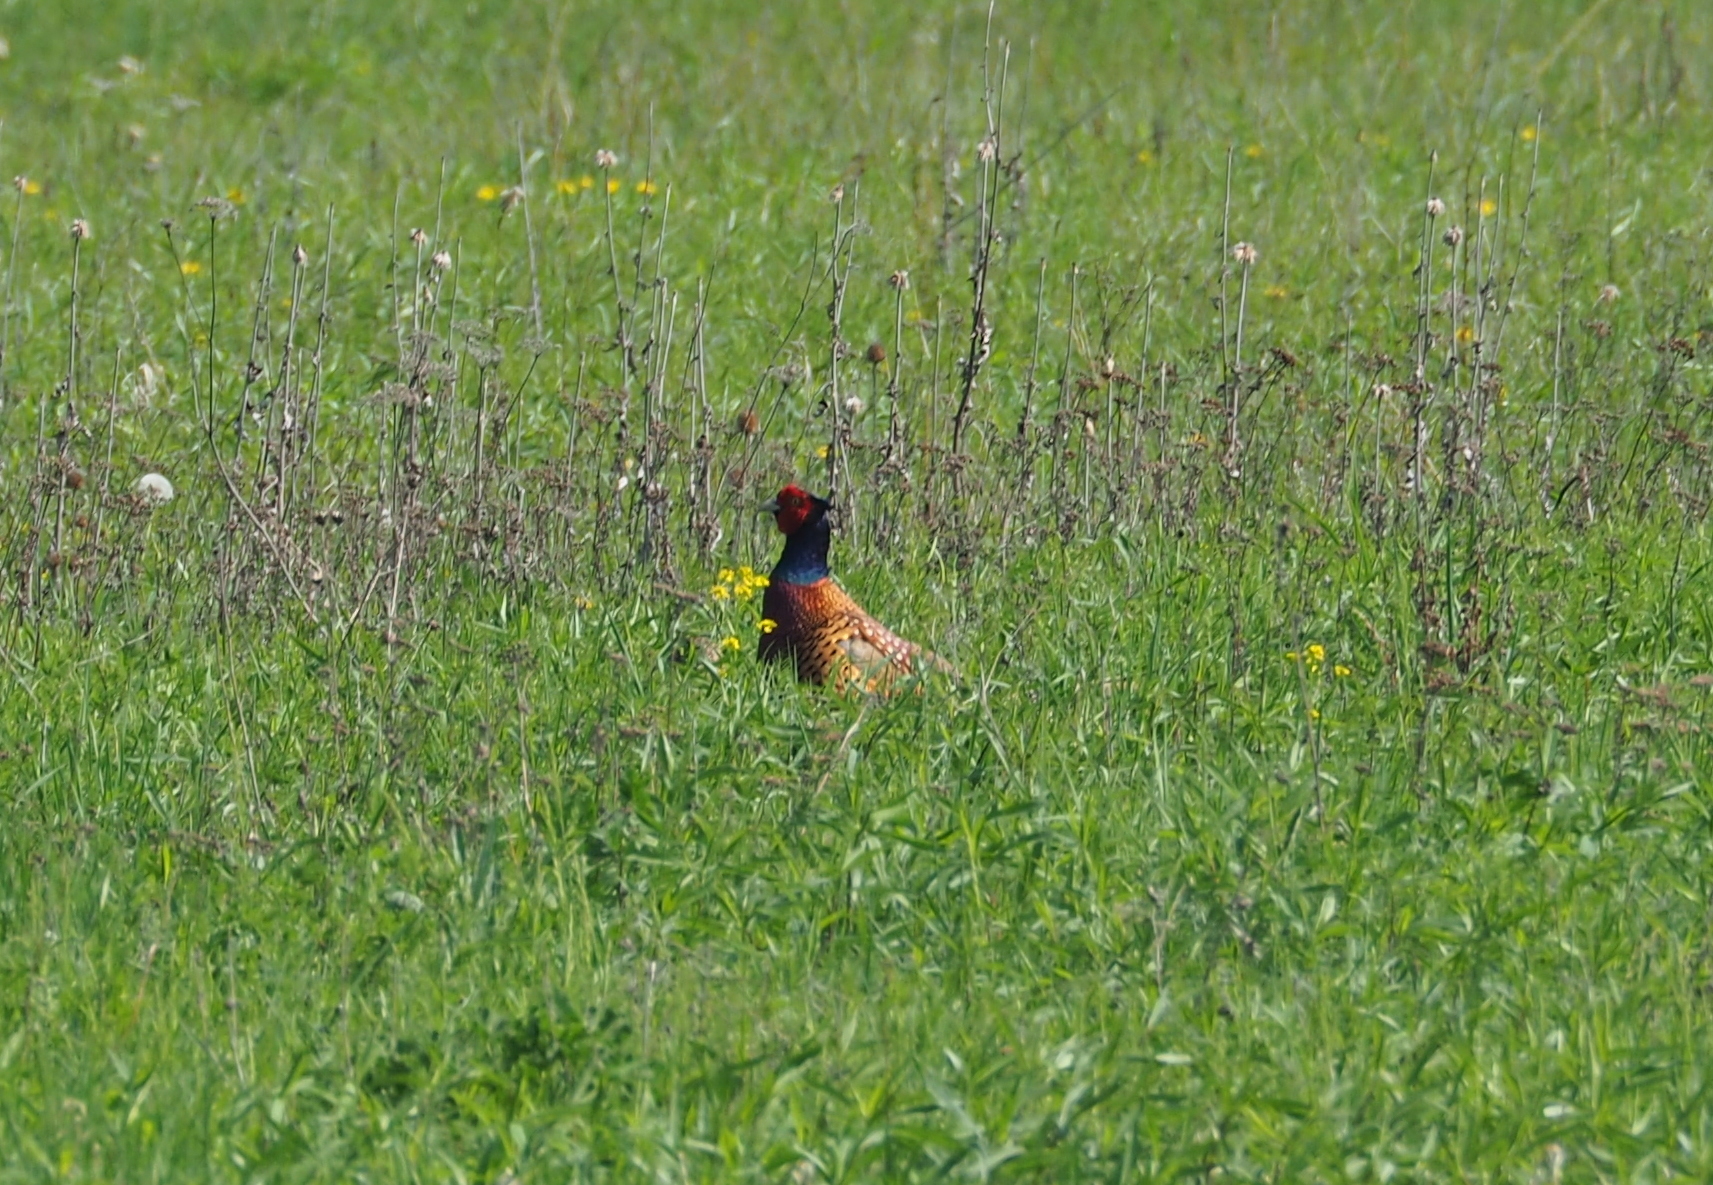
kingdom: Animalia
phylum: Chordata
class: Aves
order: Galliformes
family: Phasianidae
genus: Phasianus
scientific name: Phasianus colchicus
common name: Common pheasant
